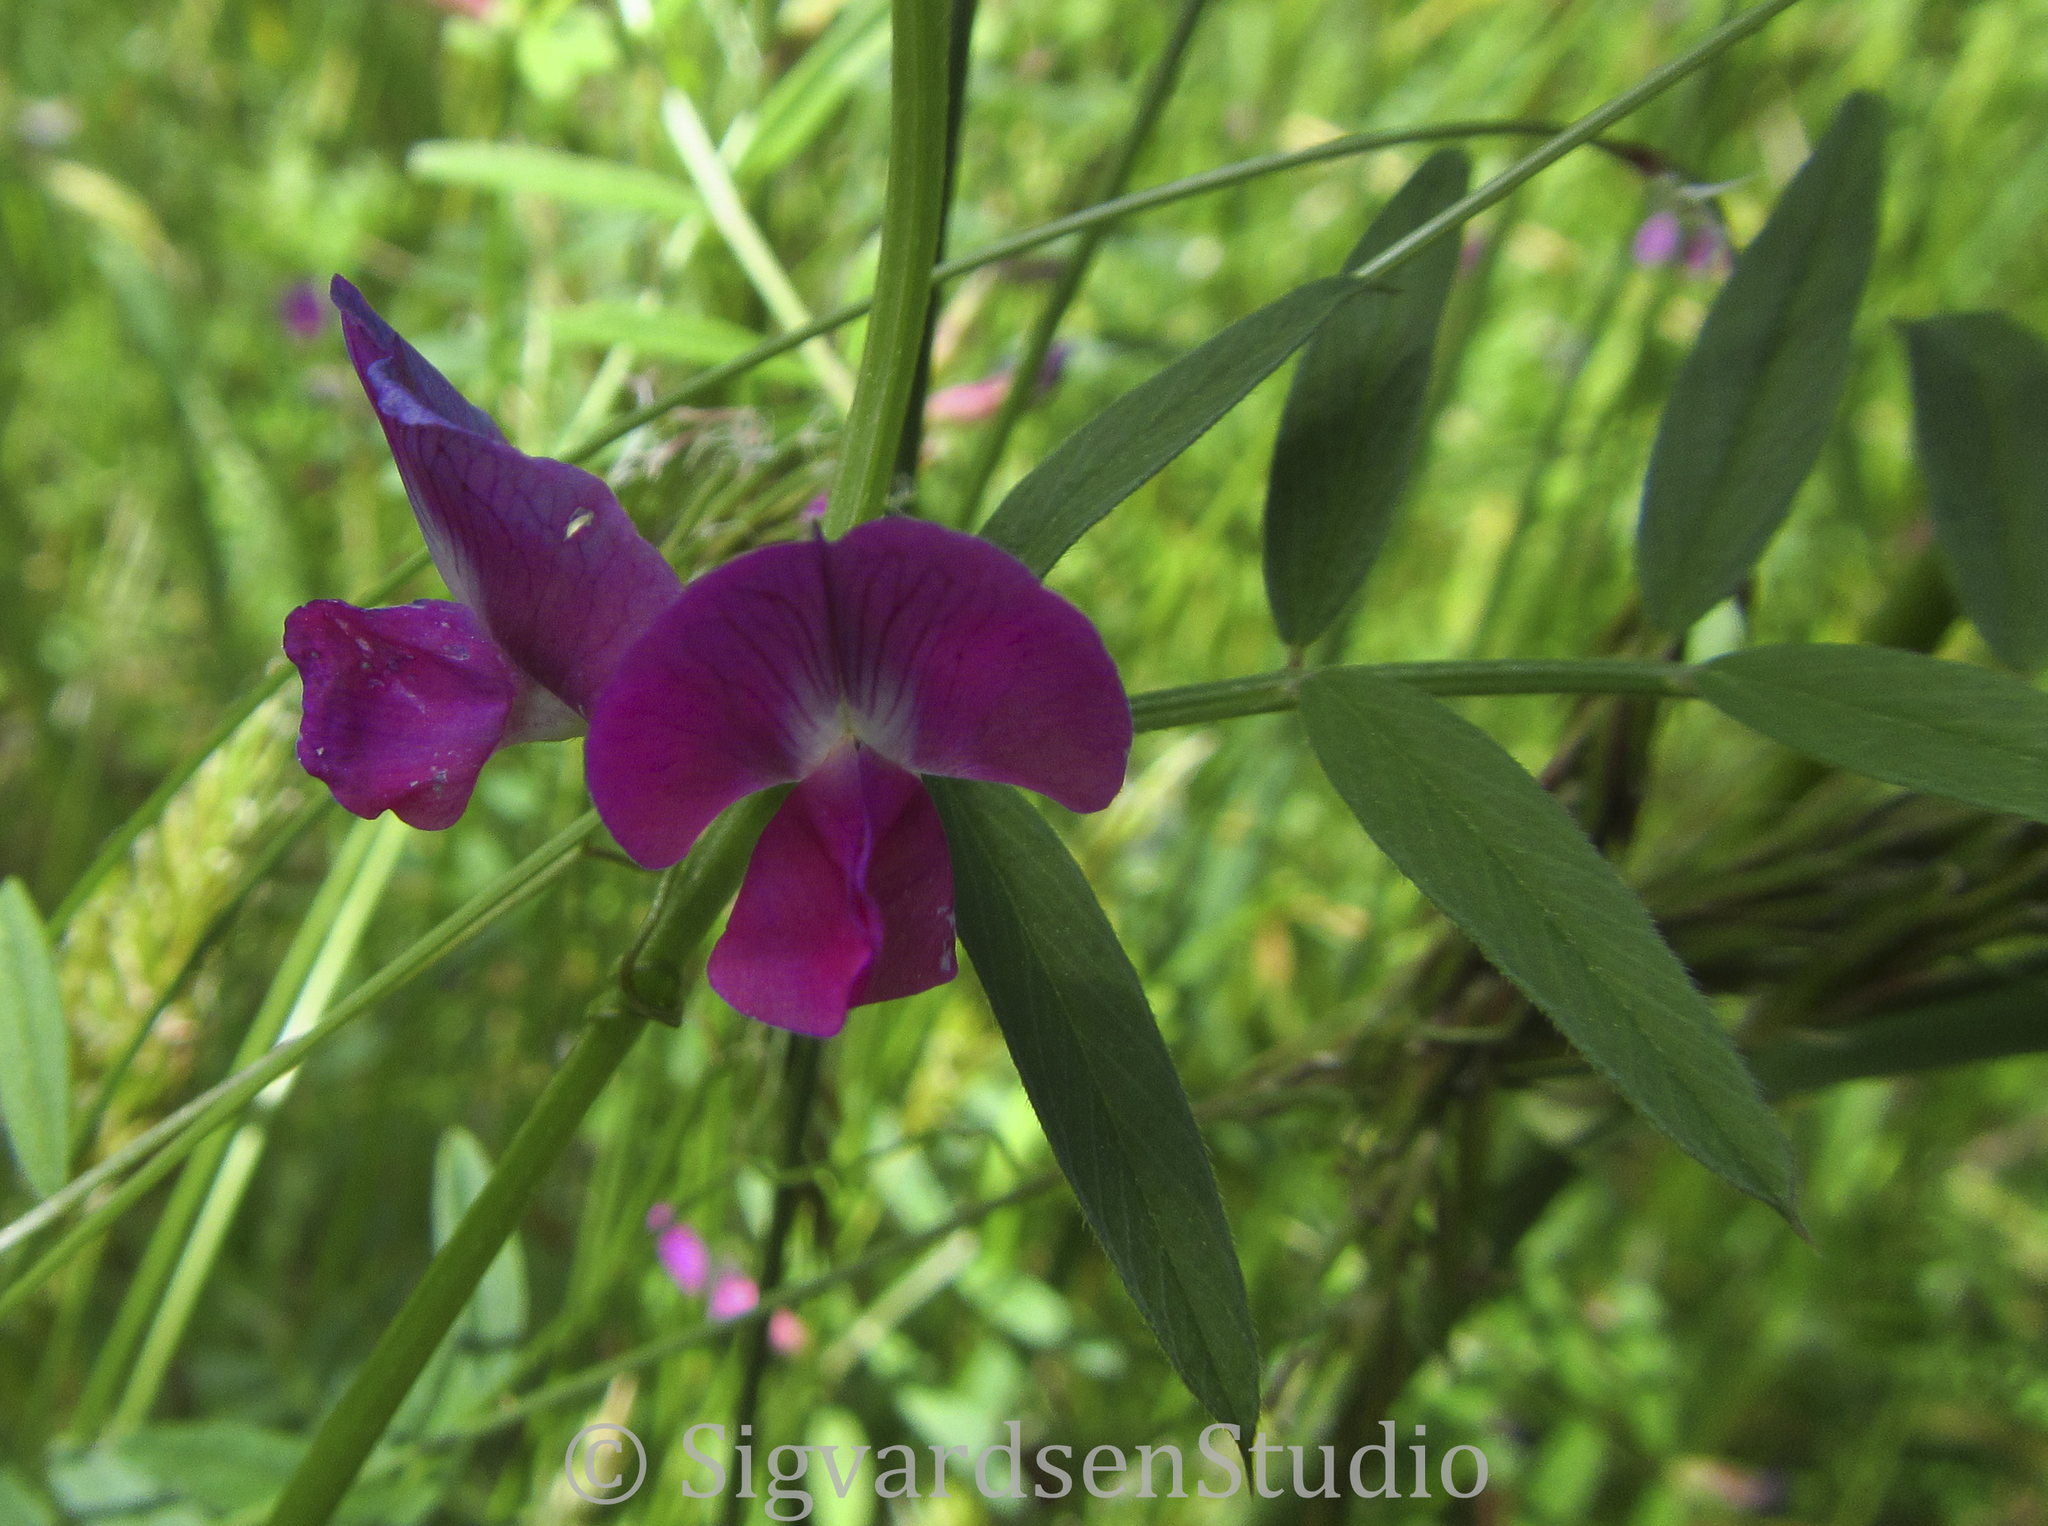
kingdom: Plantae
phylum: Tracheophyta
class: Magnoliopsida
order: Fabales
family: Fabaceae
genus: Vicia
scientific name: Vicia sativa
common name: Garden vetch
